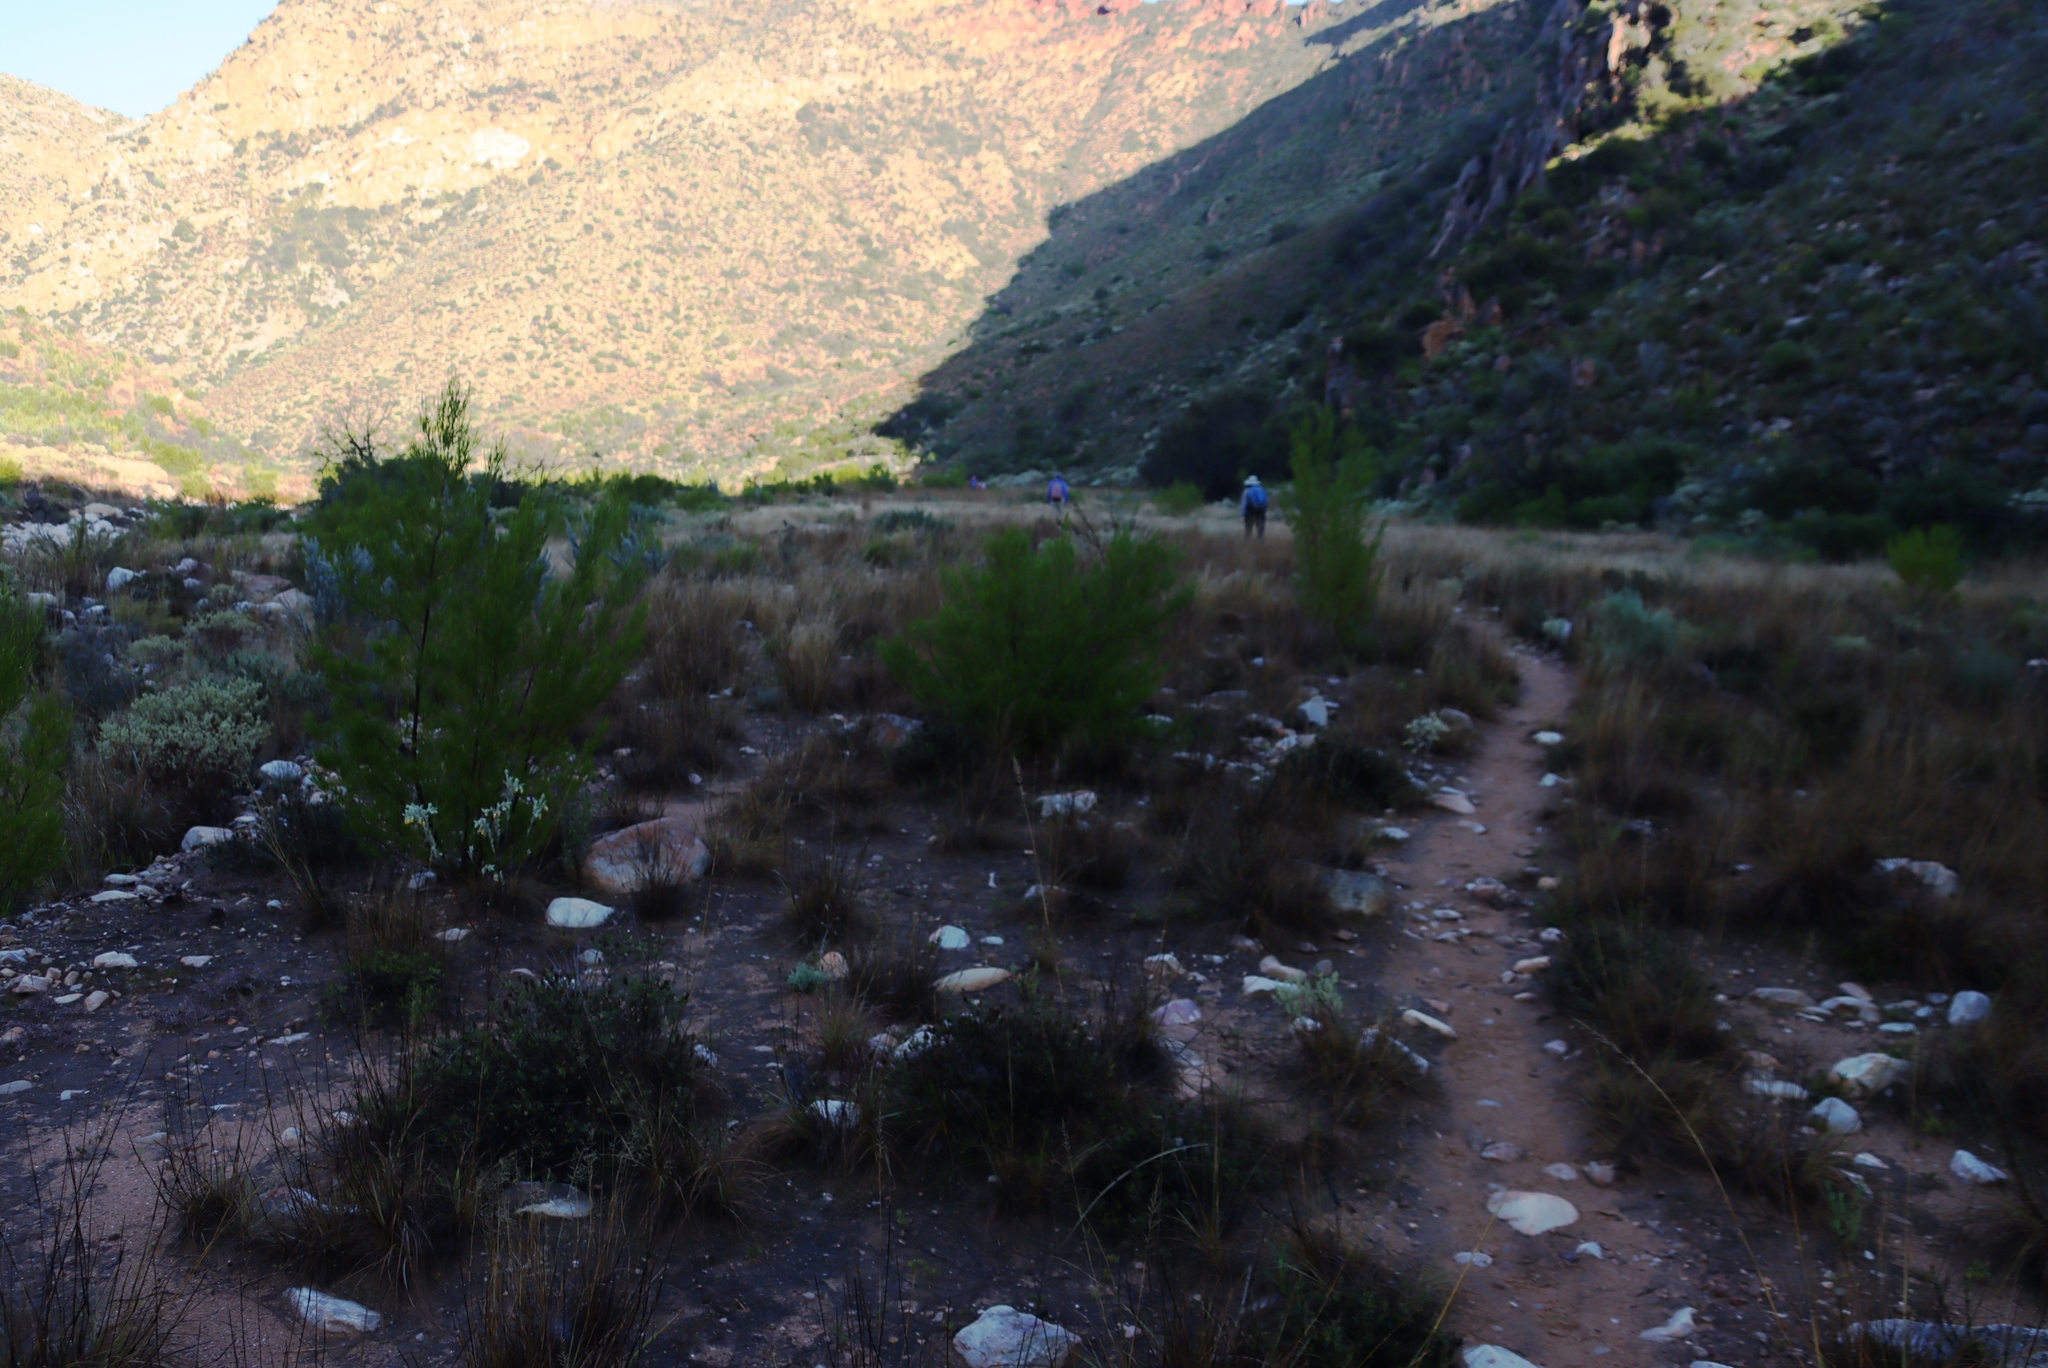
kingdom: Plantae
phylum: Tracheophyta
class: Magnoliopsida
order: Sapindales
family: Sapindaceae
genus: Dodonaea
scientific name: Dodonaea viscosa
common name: Hopbush
